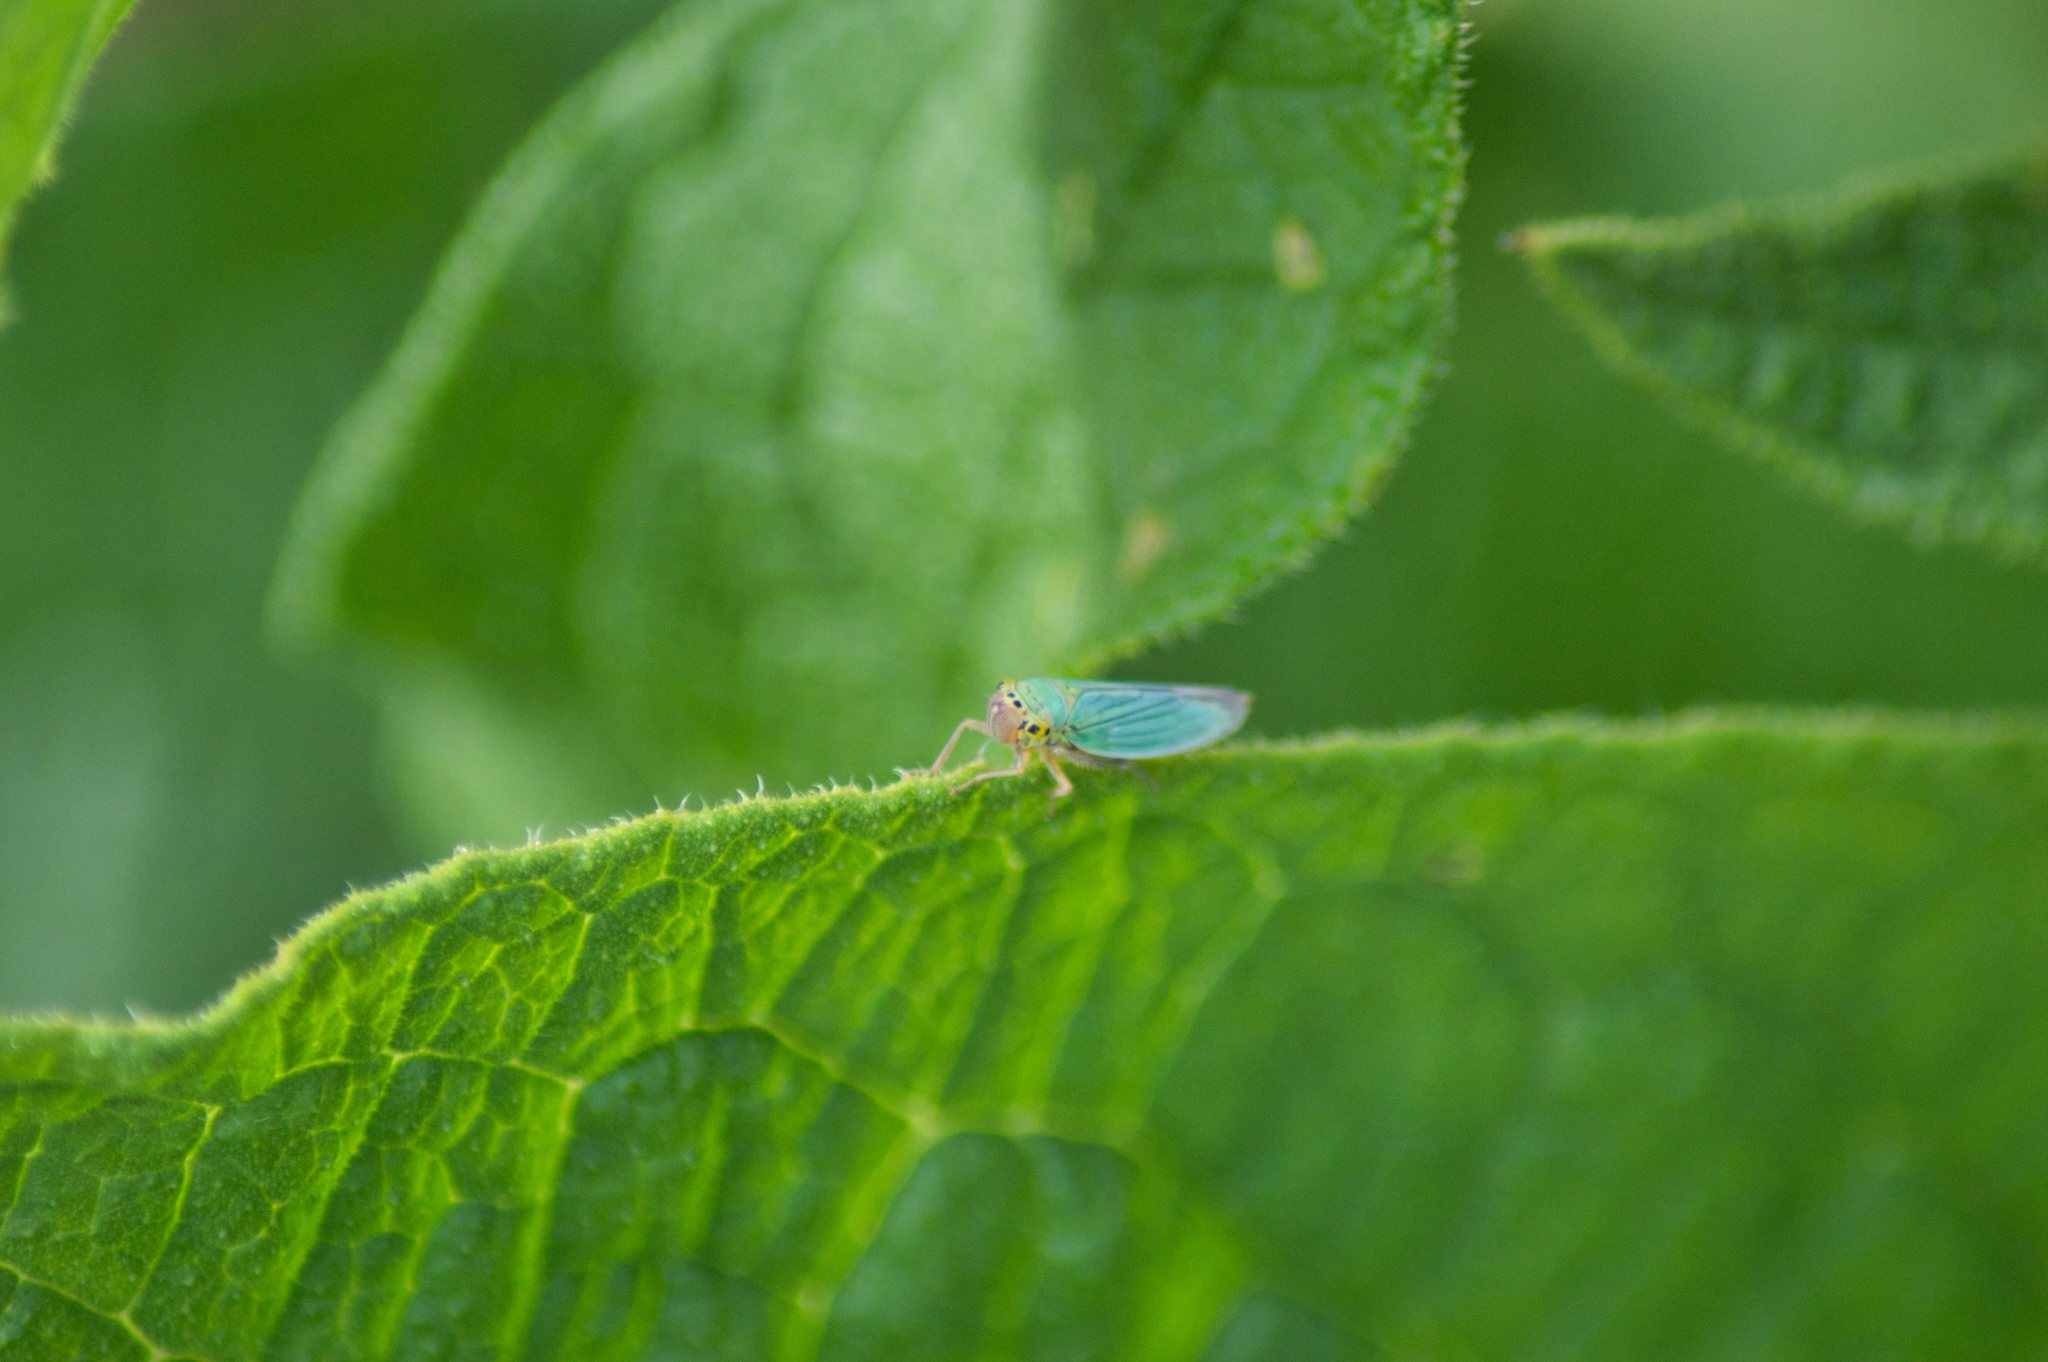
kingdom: Animalia
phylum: Arthropoda
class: Insecta
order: Hemiptera
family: Cicadellidae
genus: Cicadella
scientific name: Cicadella viridis
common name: Leafhopper
